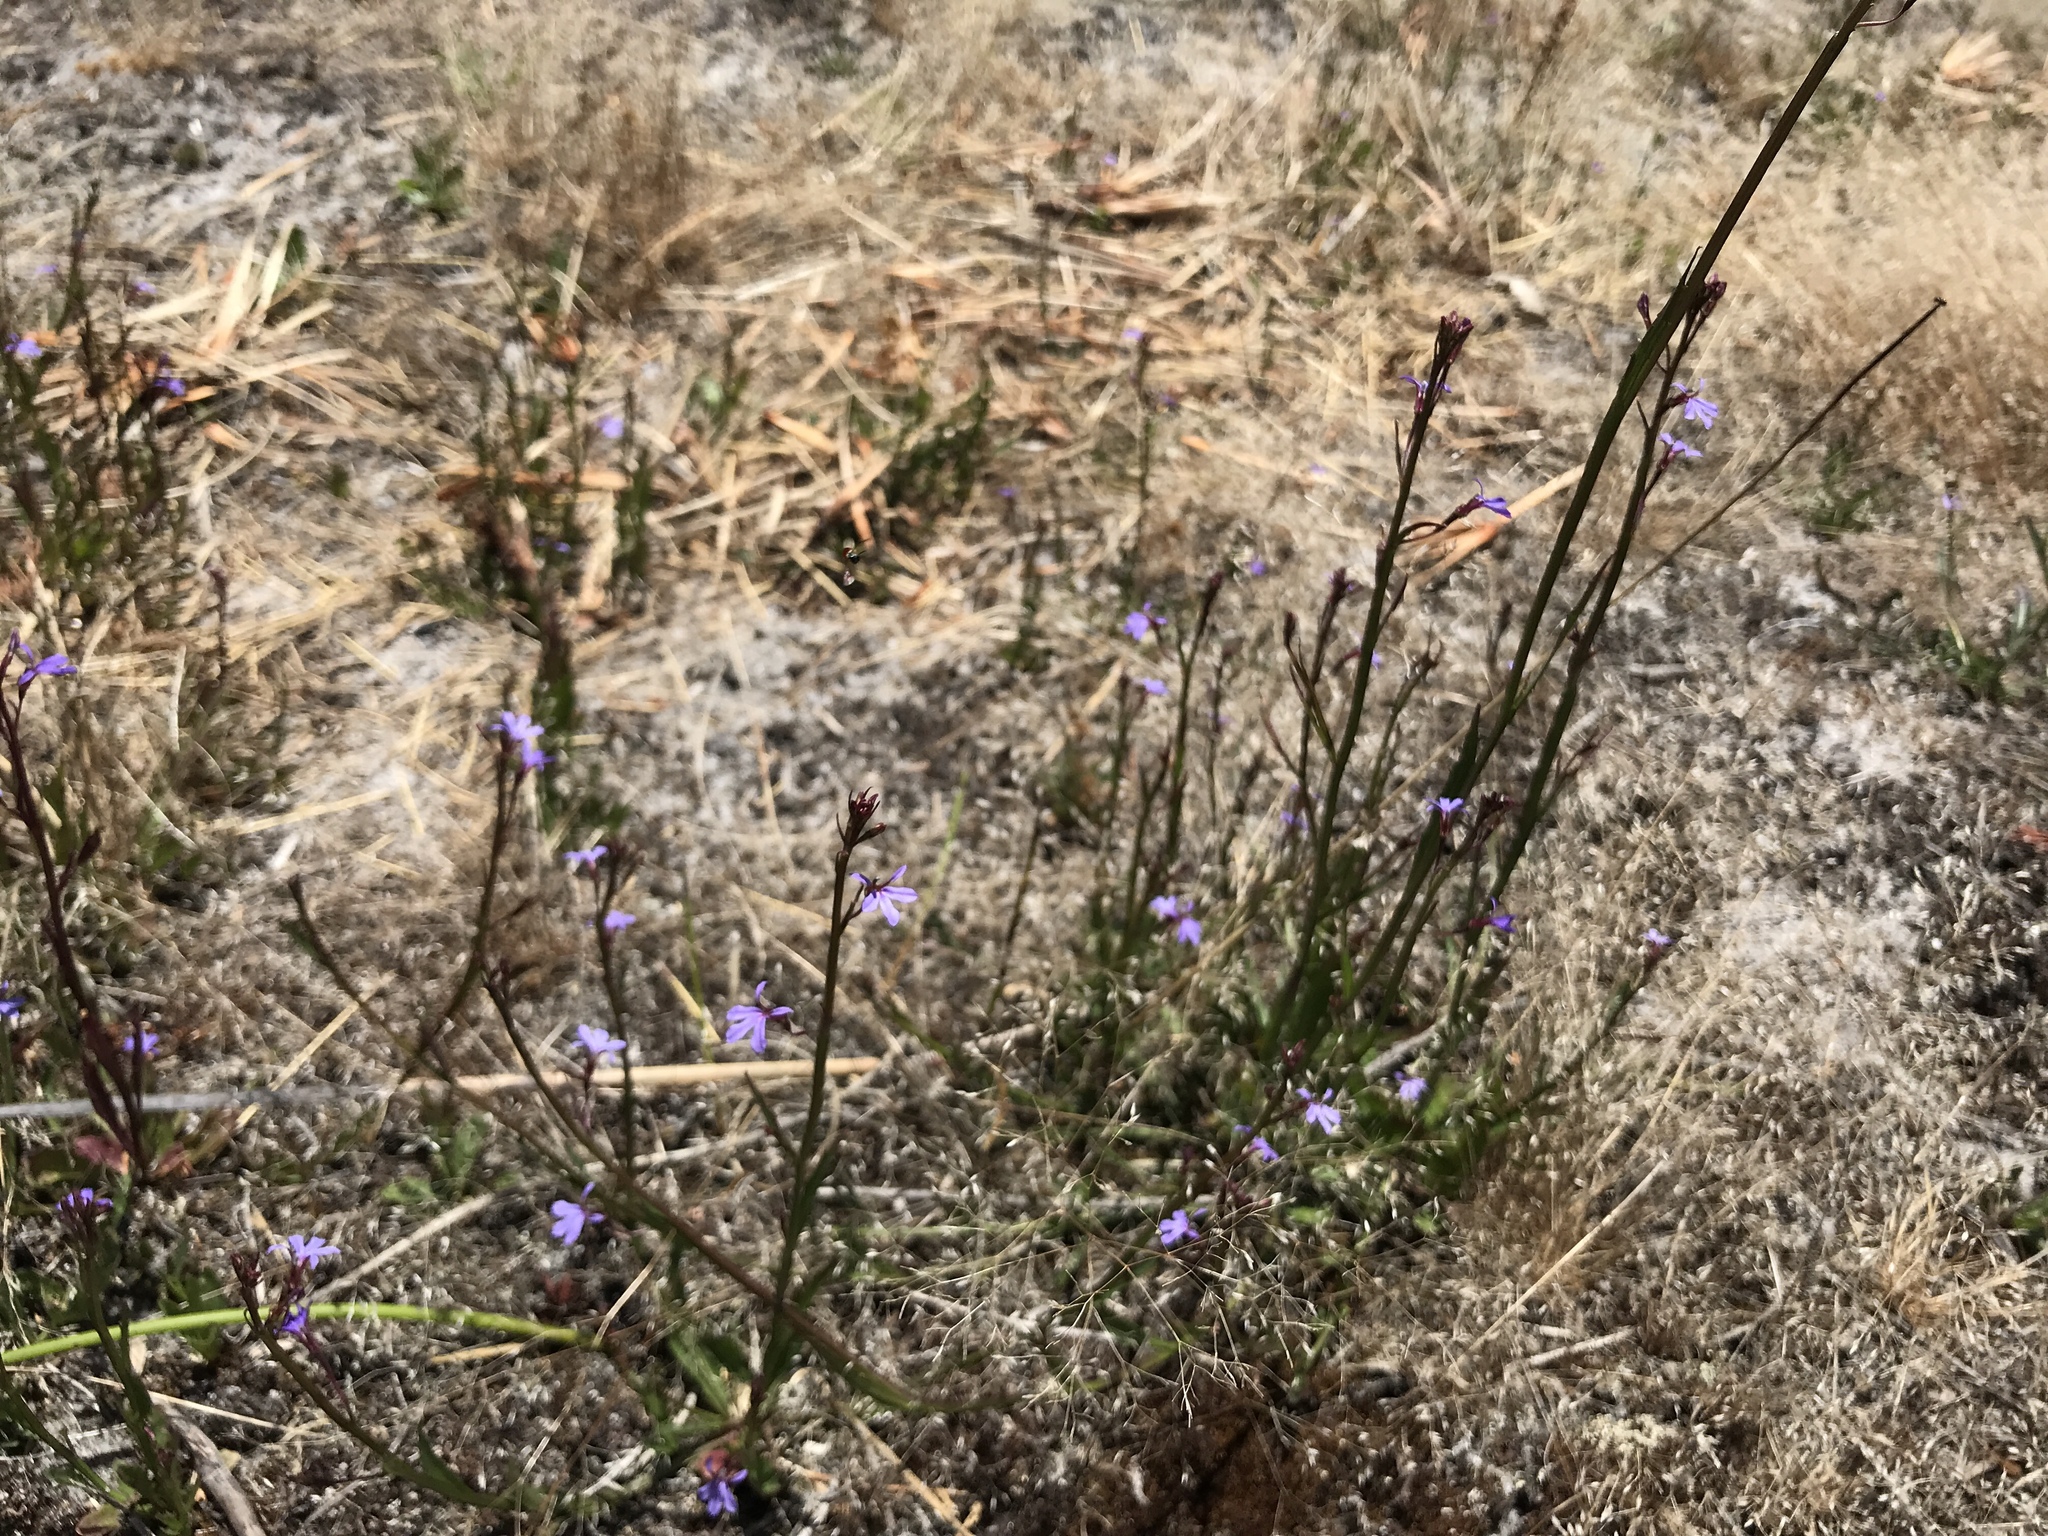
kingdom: Plantae
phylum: Tracheophyta
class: Magnoliopsida
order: Asterales
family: Campanulaceae
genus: Lobelia
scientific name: Lobelia anceps
